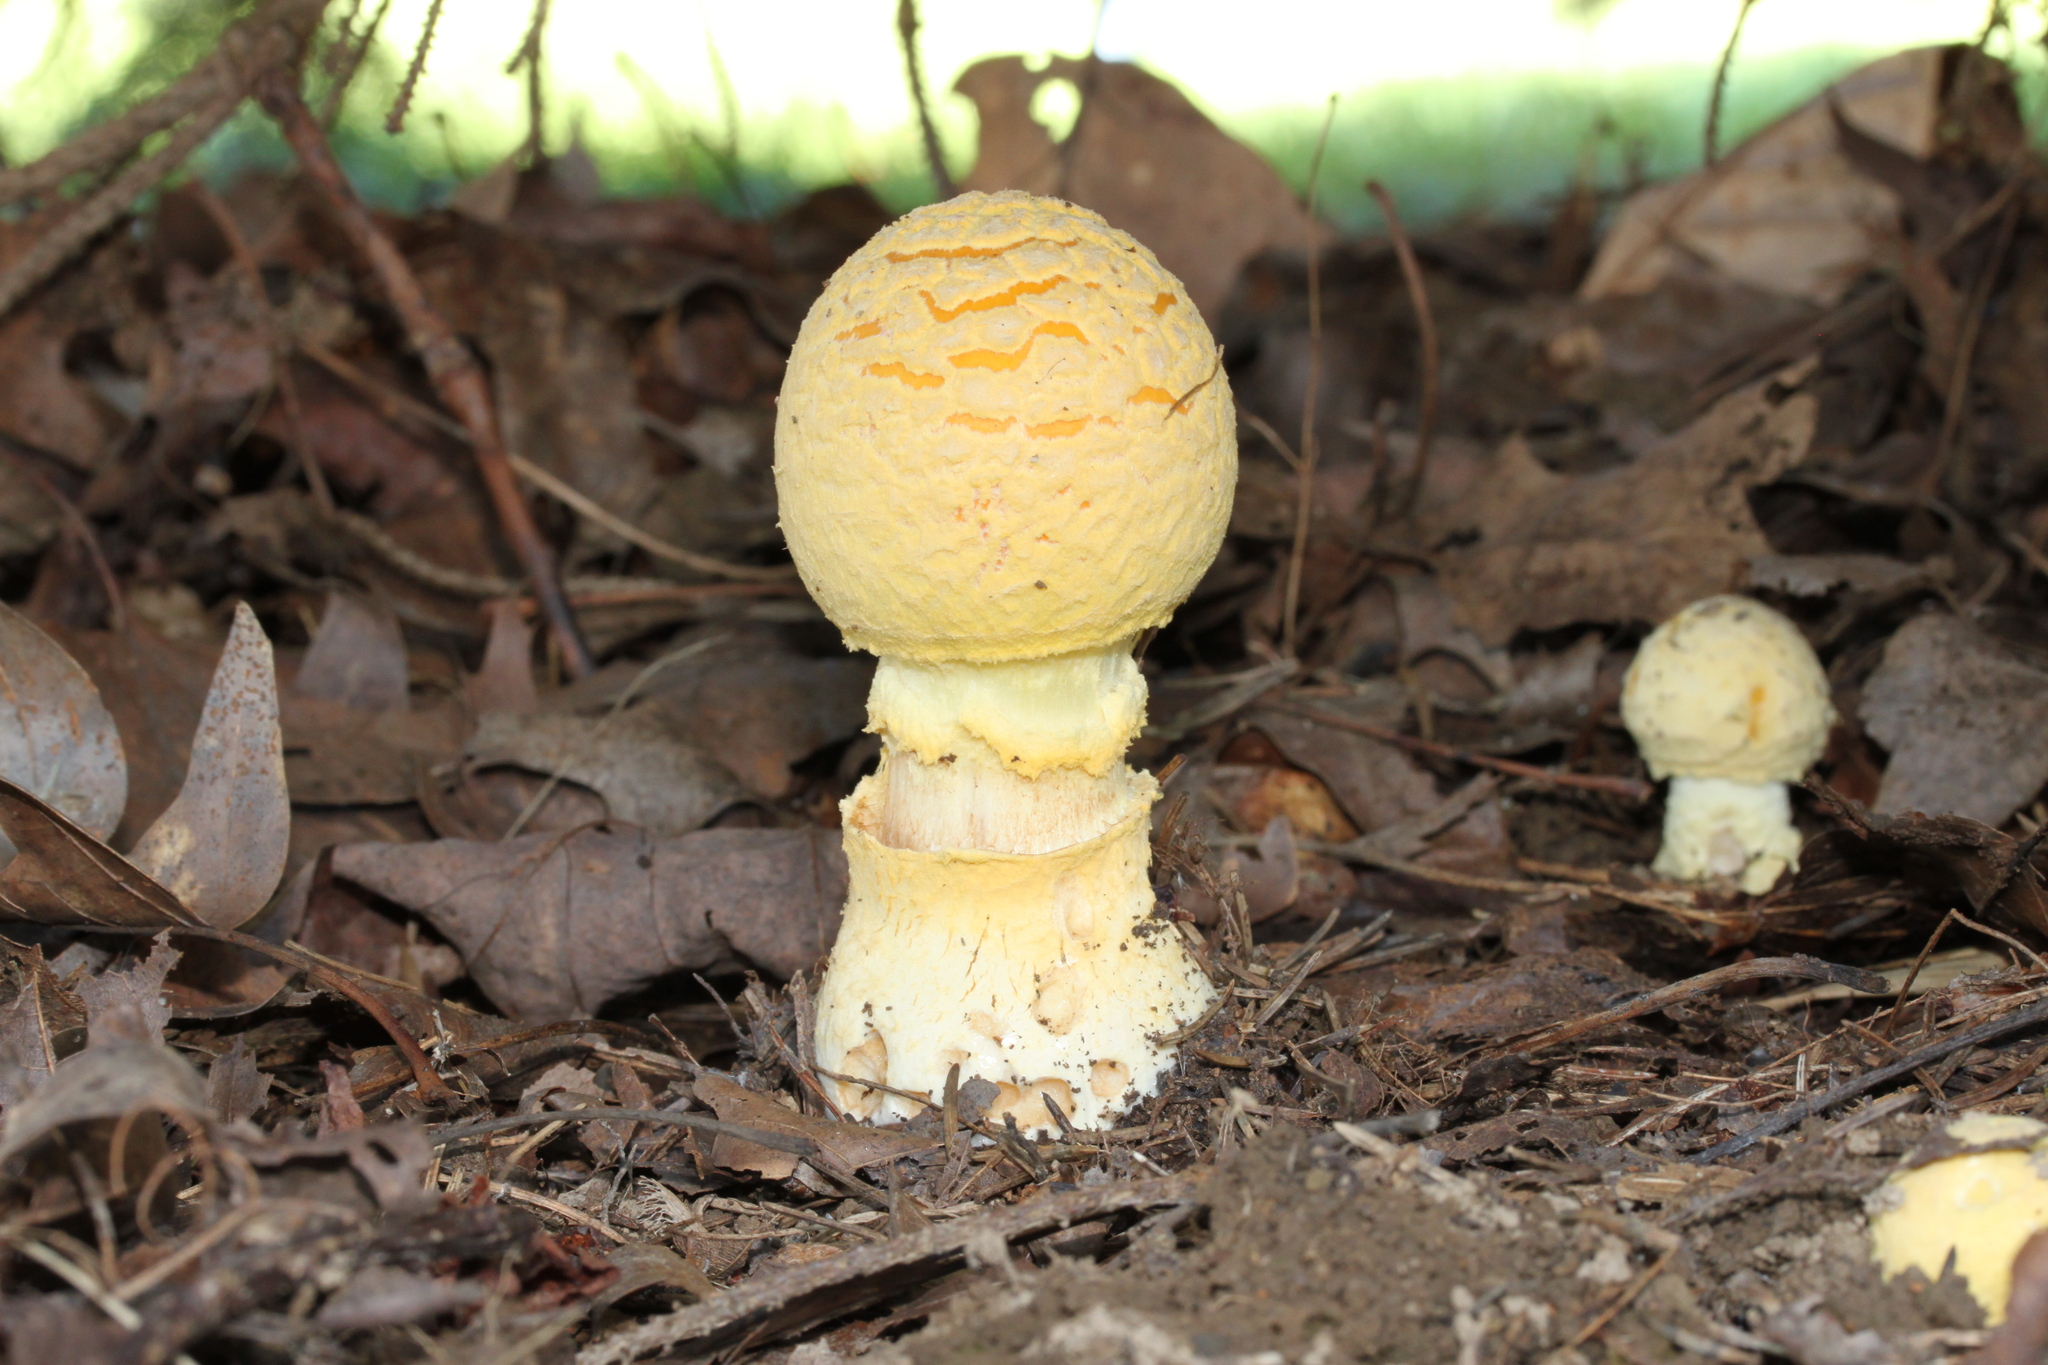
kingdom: Fungi
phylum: Basidiomycota
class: Agaricomycetes
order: Agaricales
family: Amanitaceae
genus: Amanita
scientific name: Amanita muscaria
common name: Fly agaric
